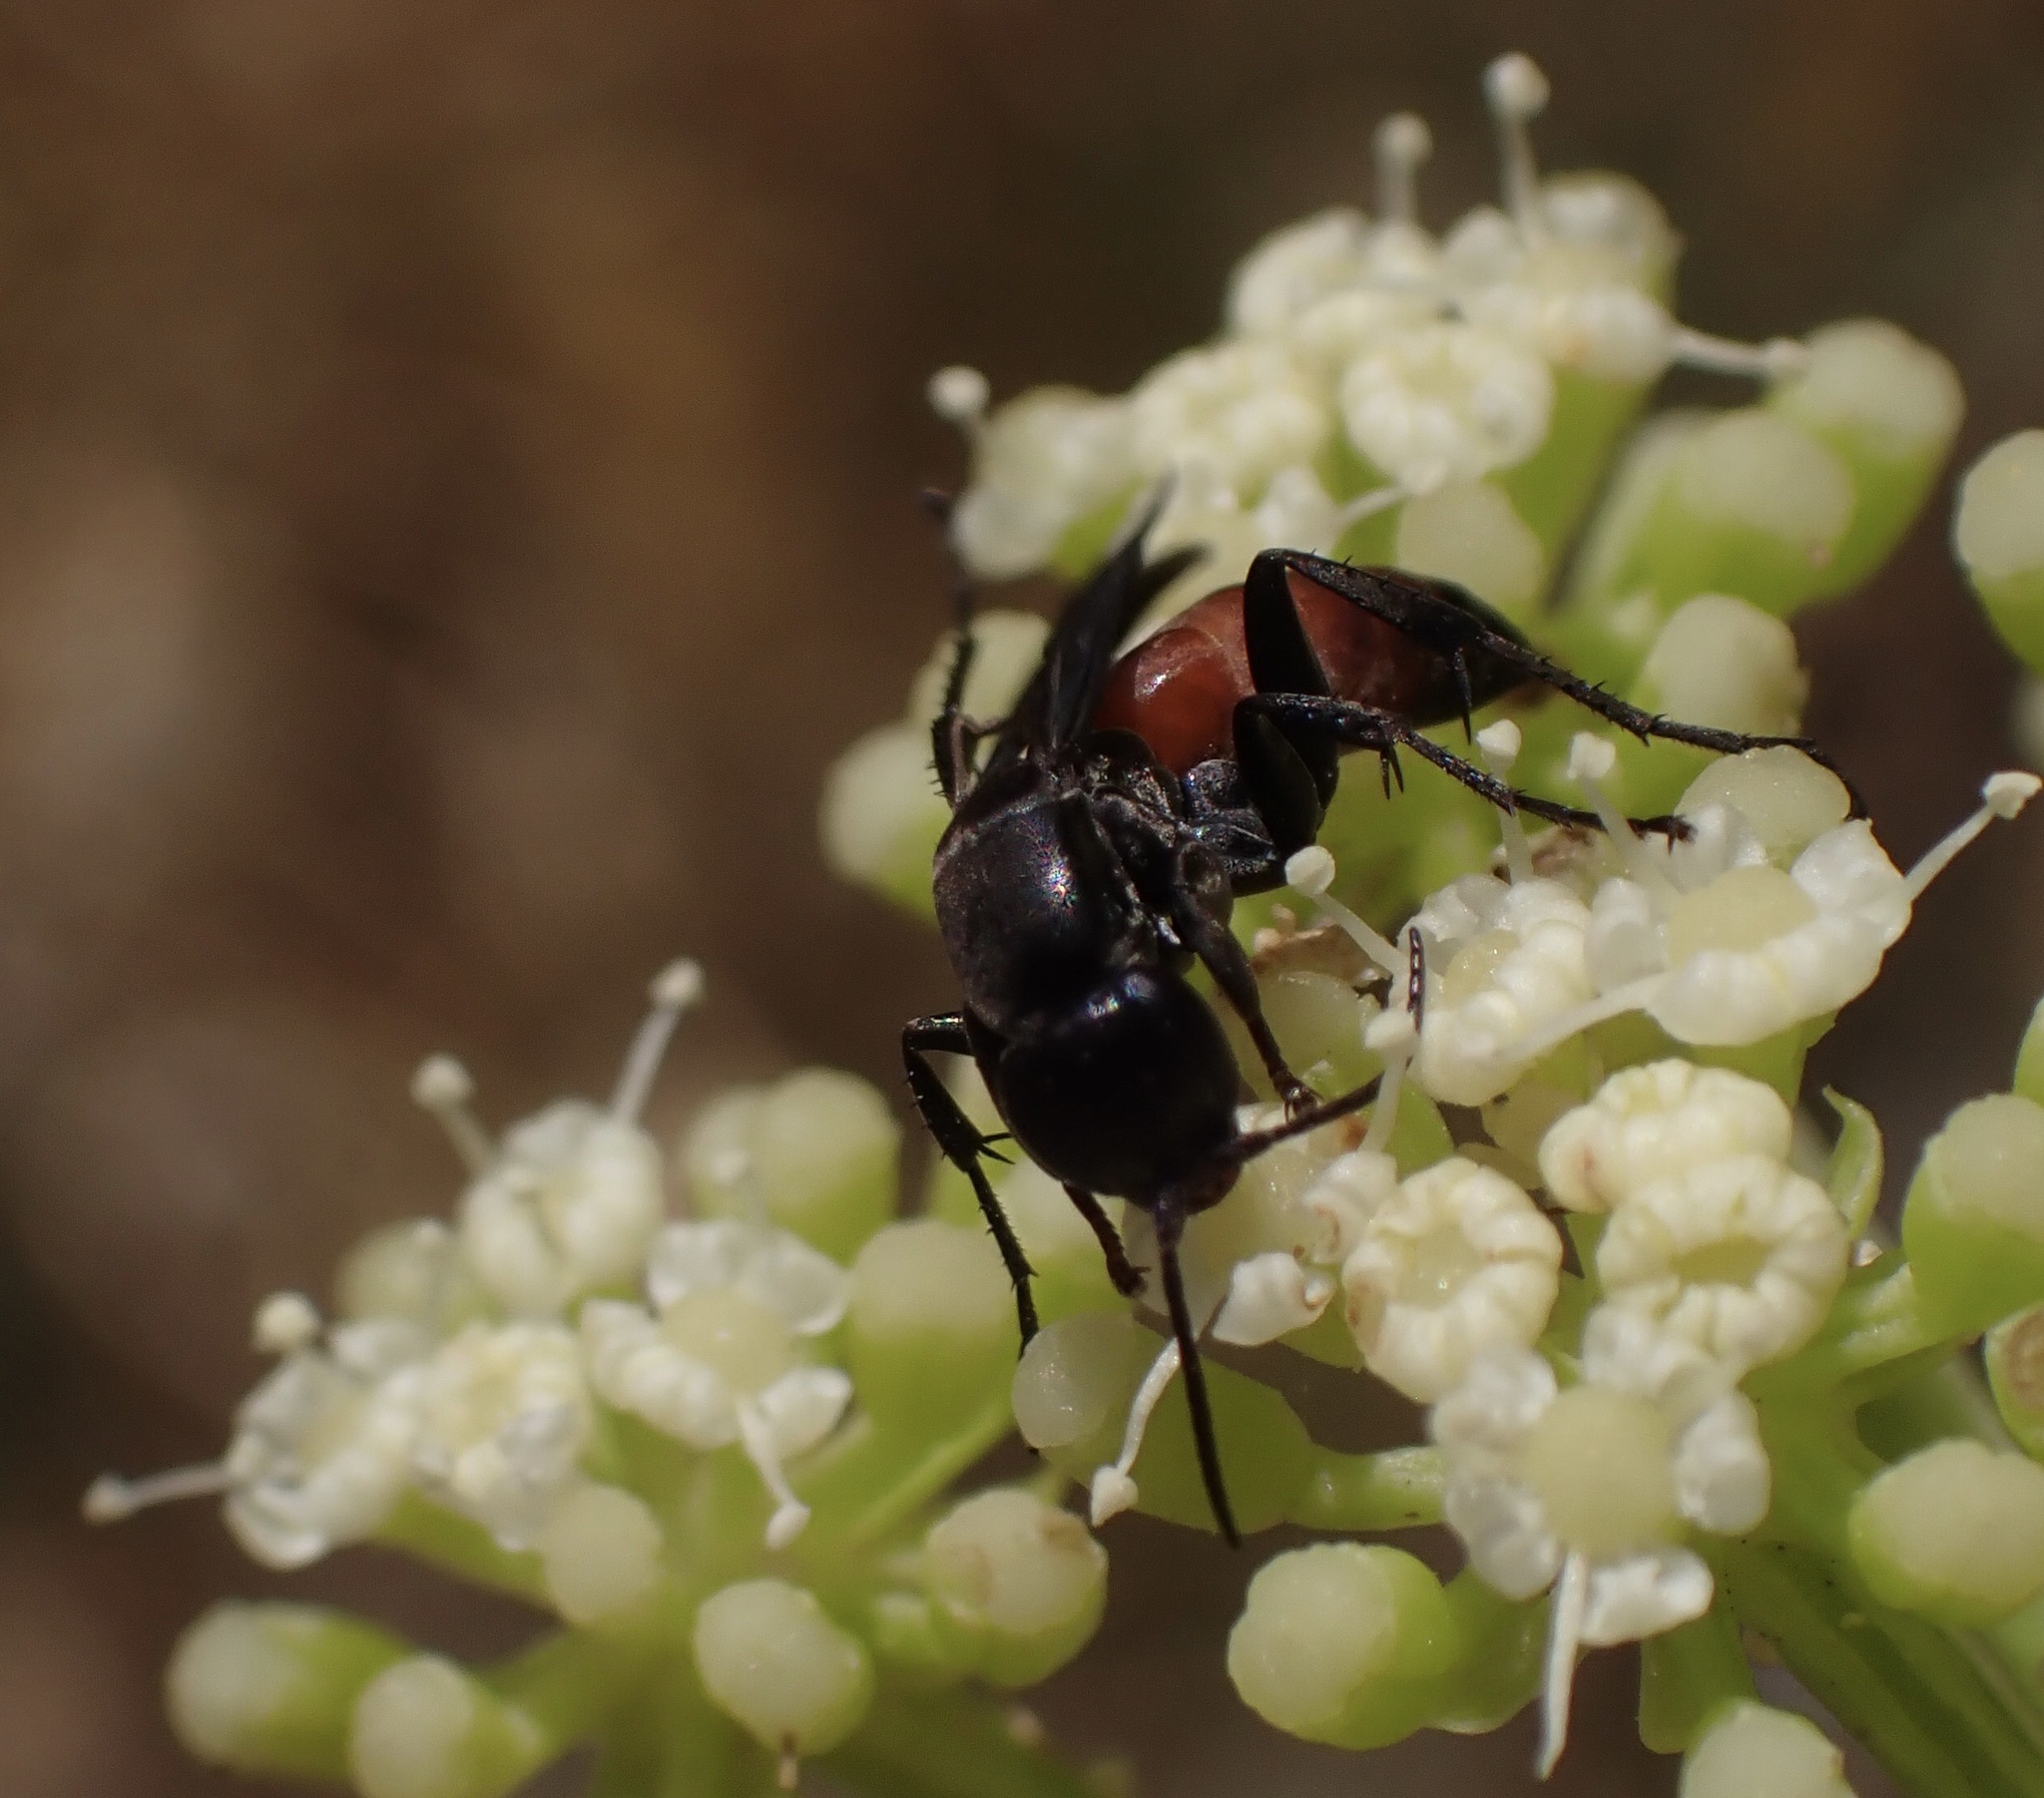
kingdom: Animalia
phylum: Arthropoda
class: Insecta
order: Hymenoptera
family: Pompilidae
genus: Aporus
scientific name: Aporus bicolor
